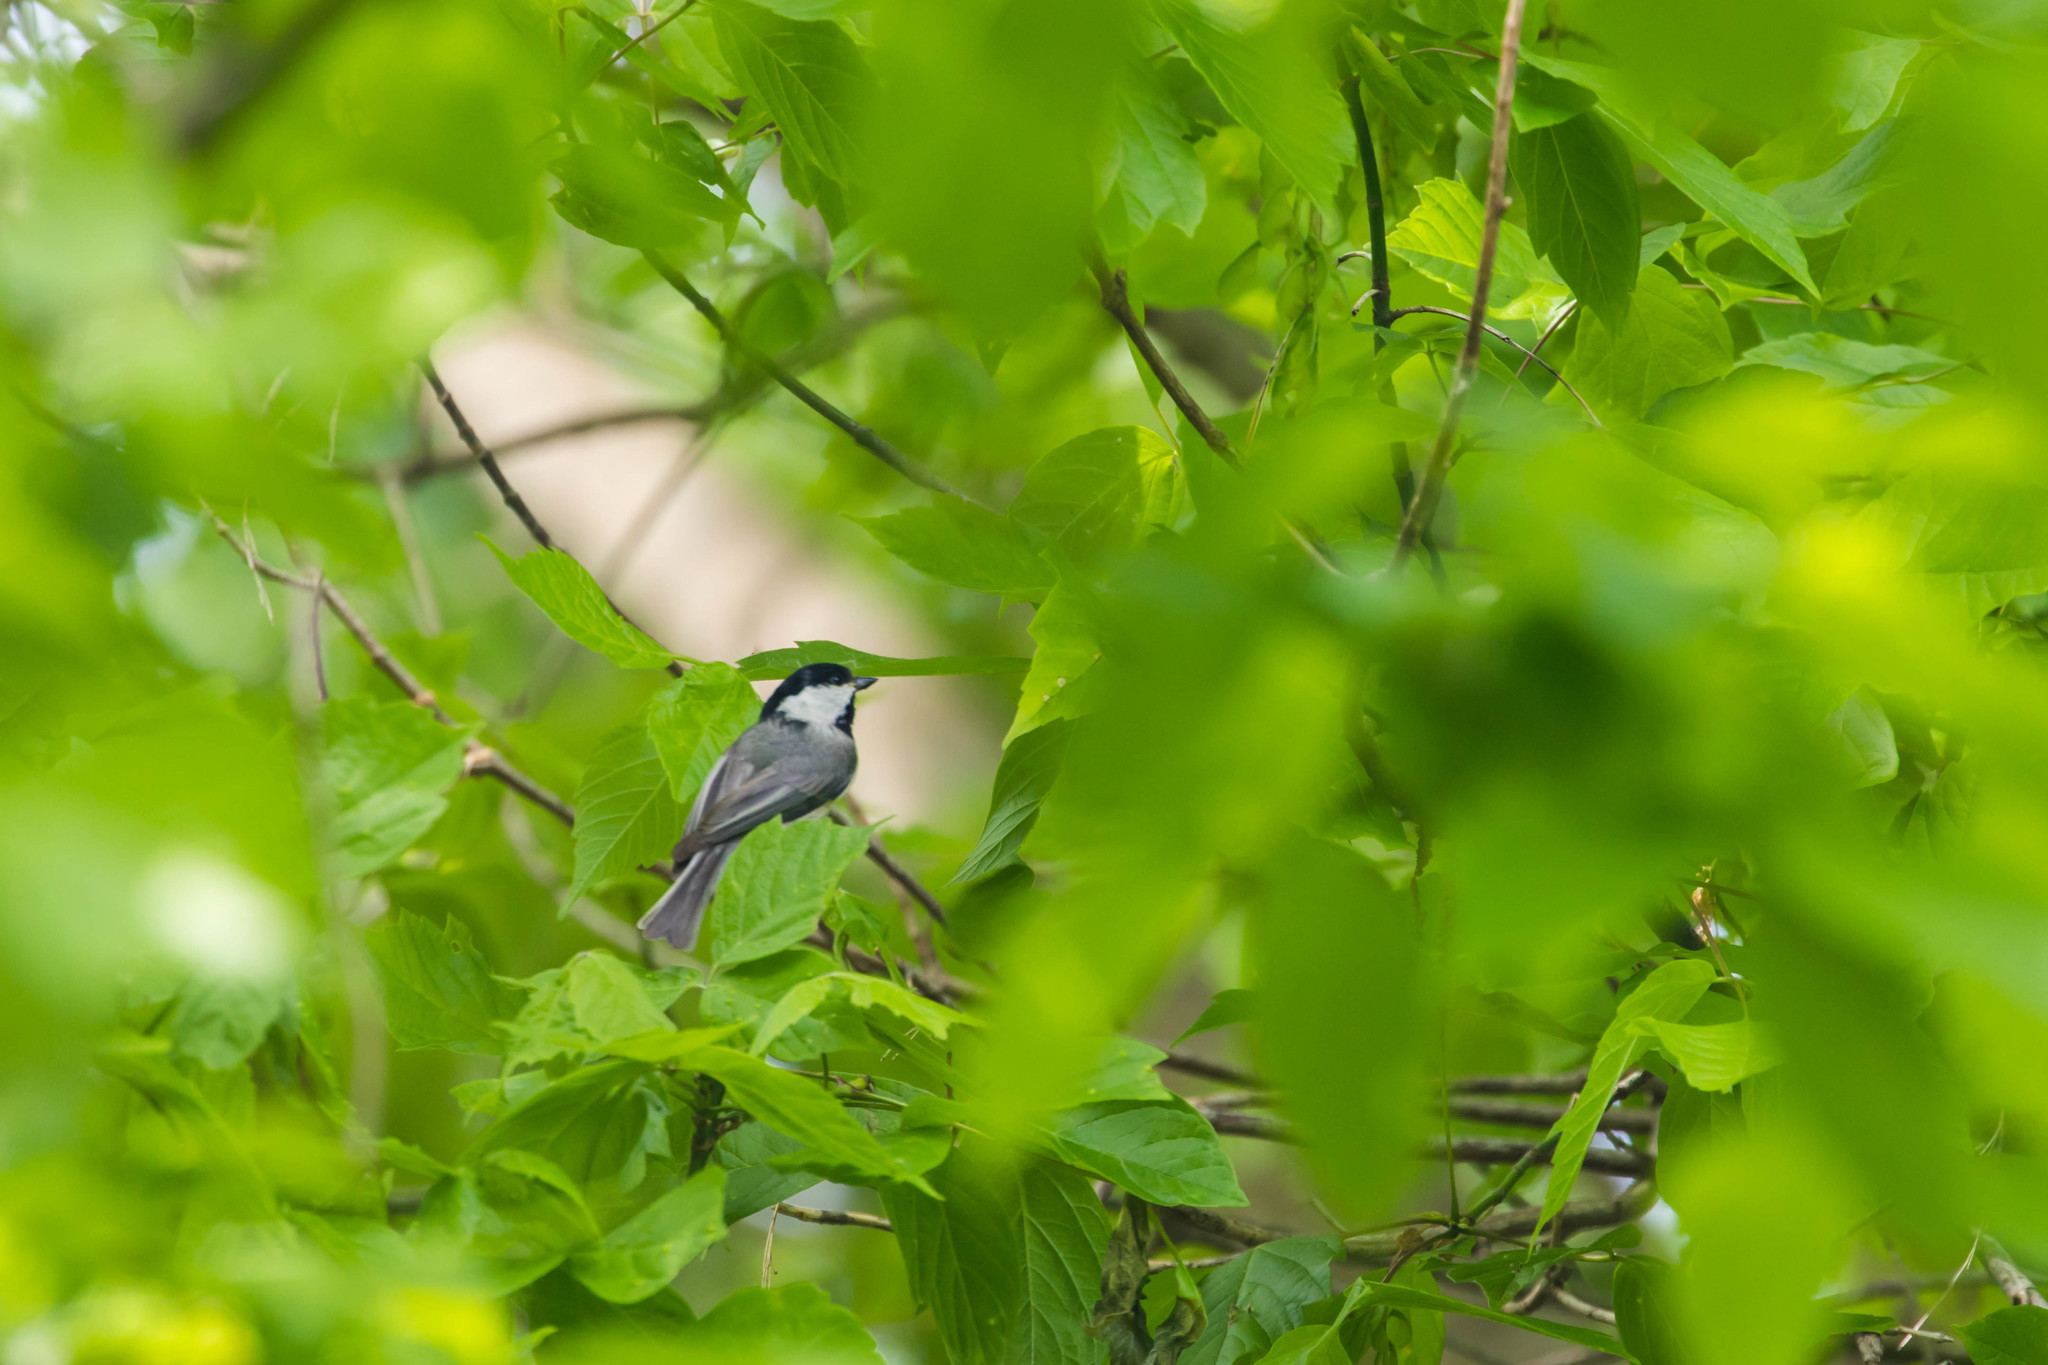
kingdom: Animalia
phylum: Chordata
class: Aves
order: Passeriformes
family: Paridae
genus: Poecile
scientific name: Poecile carolinensis
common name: Carolina chickadee
